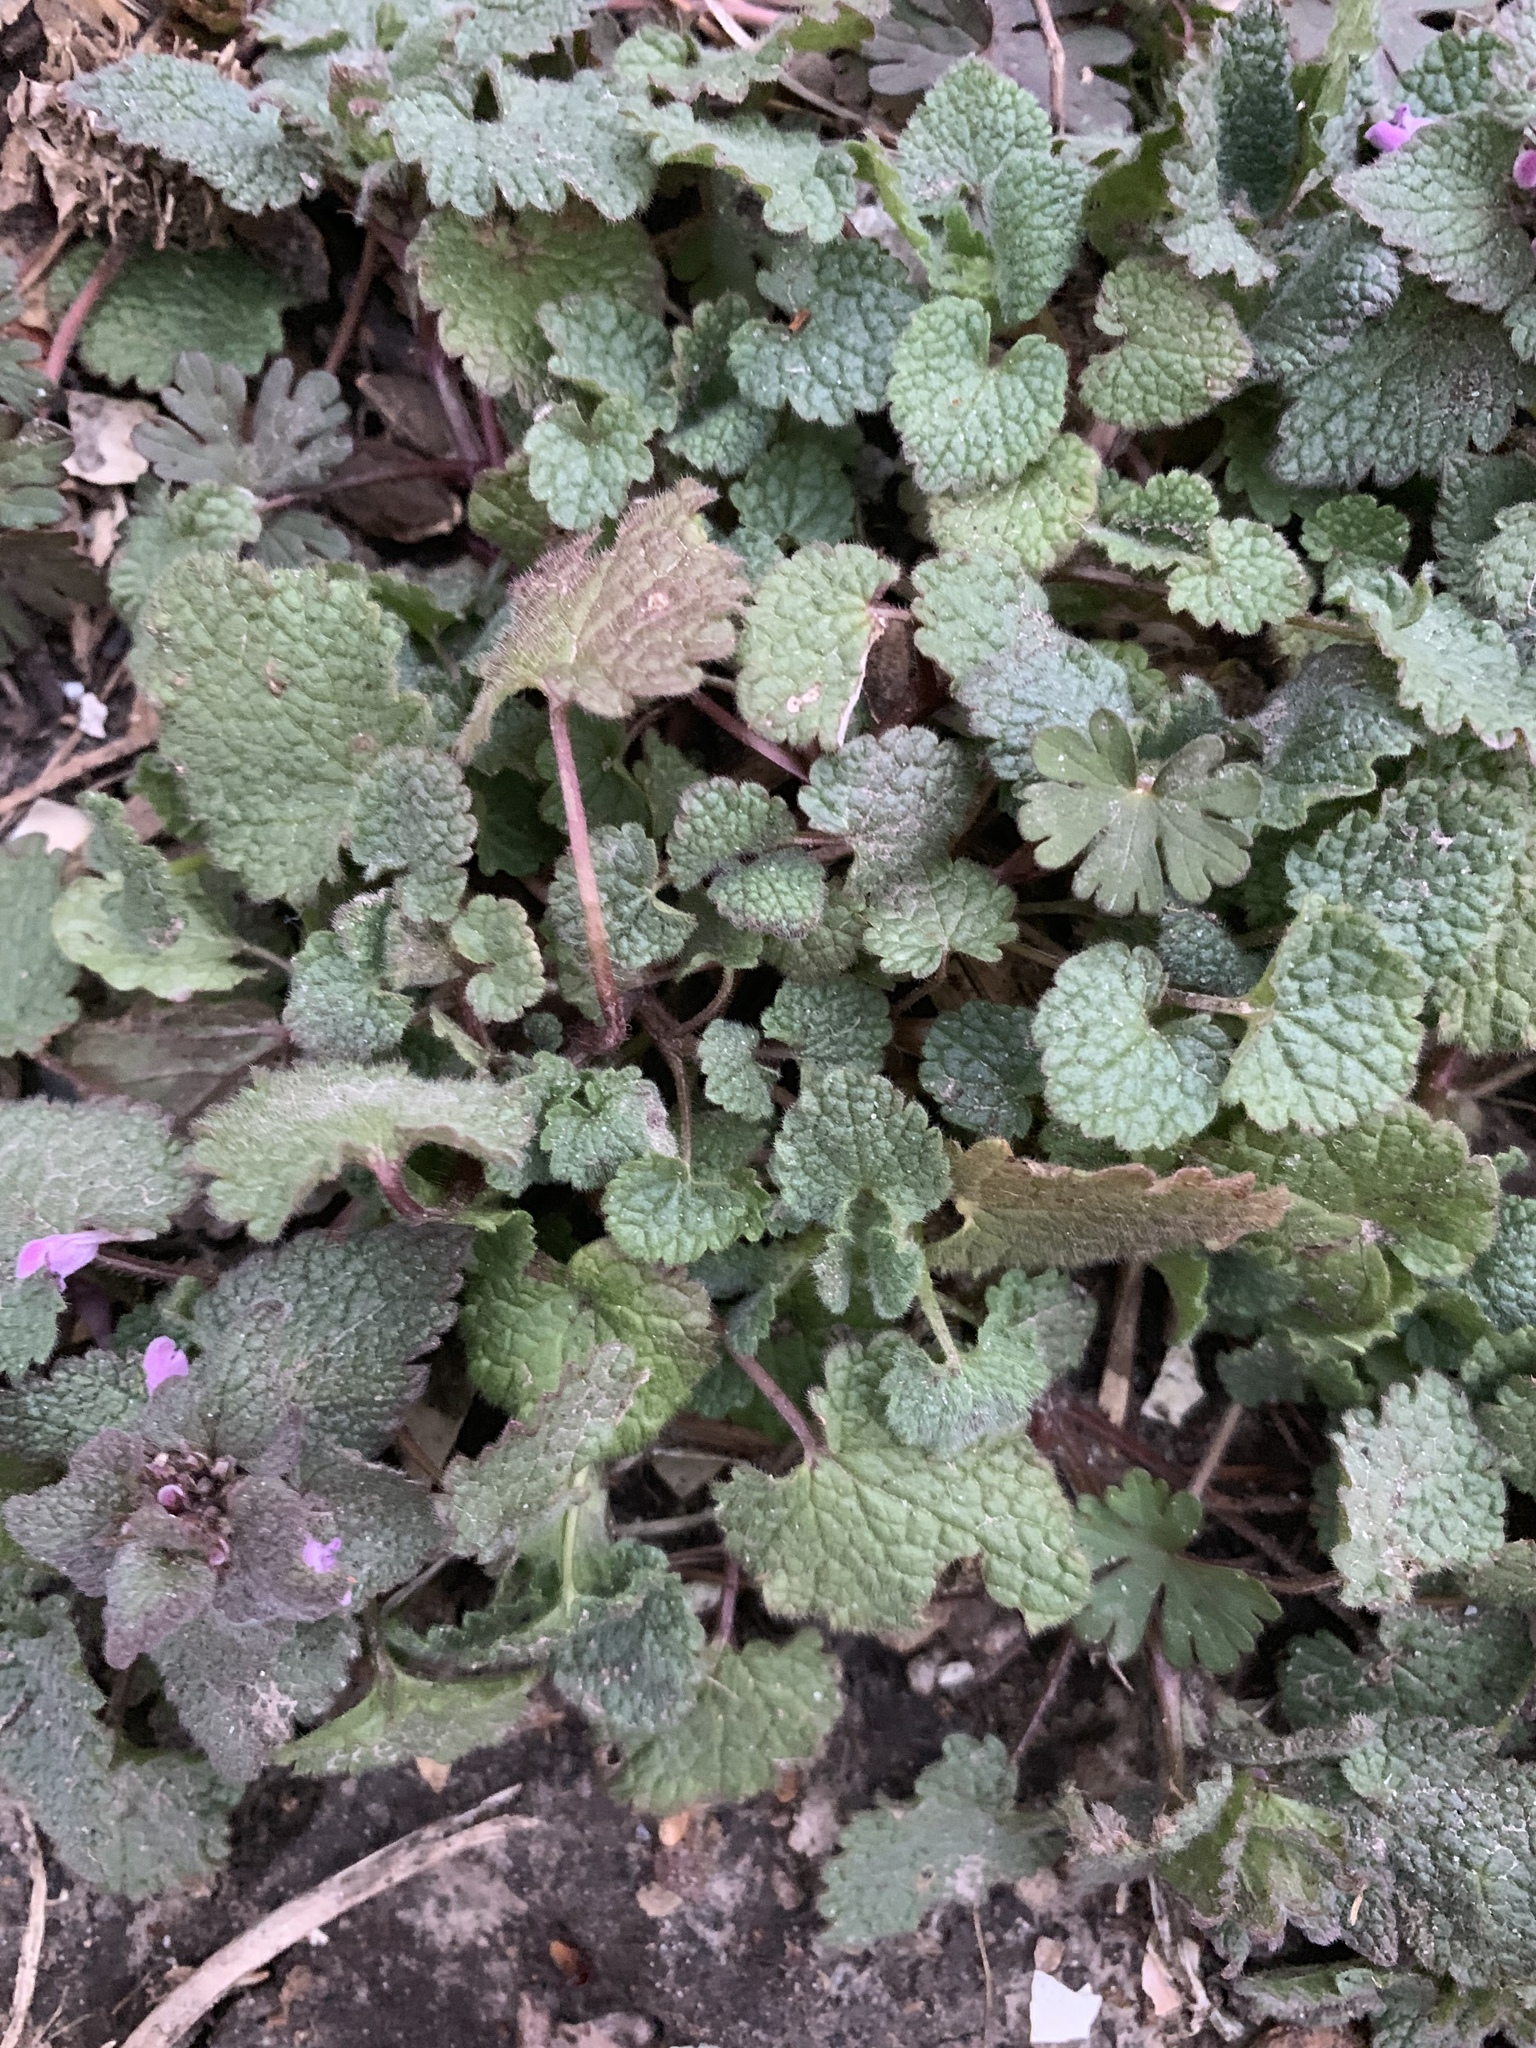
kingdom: Plantae
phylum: Tracheophyta
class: Magnoliopsida
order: Lamiales
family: Lamiaceae
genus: Lamium
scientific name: Lamium purpureum
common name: Red dead-nettle
